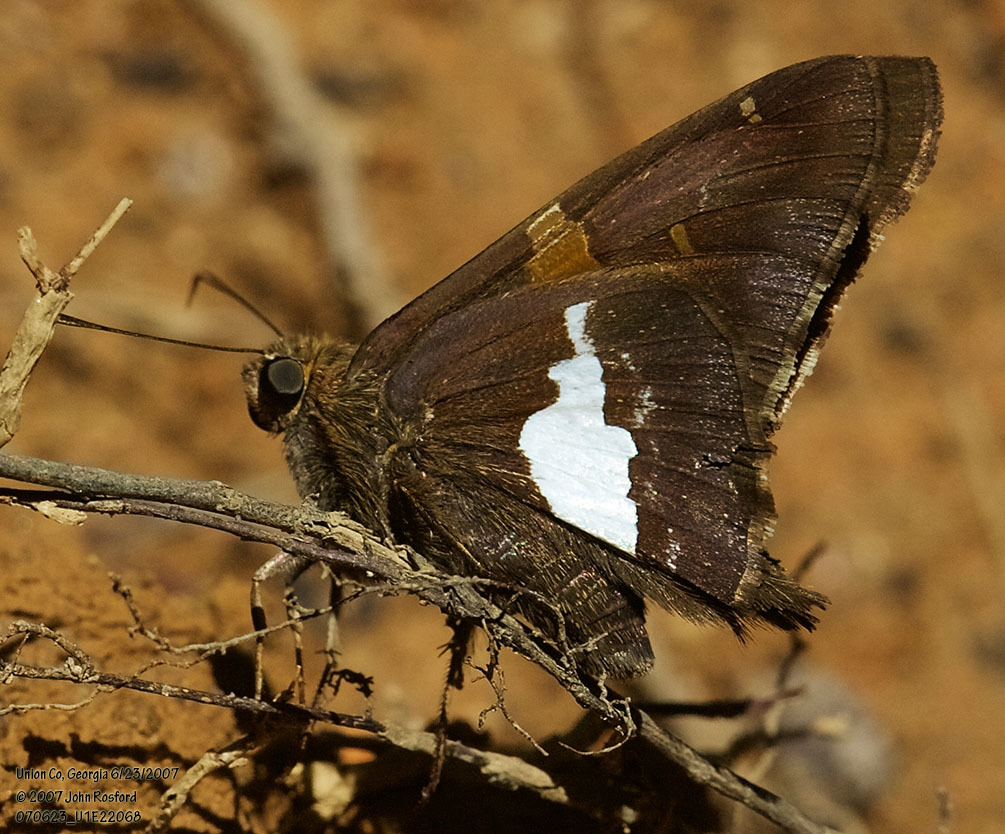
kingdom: Animalia
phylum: Arthropoda
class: Insecta
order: Lepidoptera
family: Hesperiidae
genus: Epargyreus
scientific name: Epargyreus clarus
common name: Silver-spotted skipper
